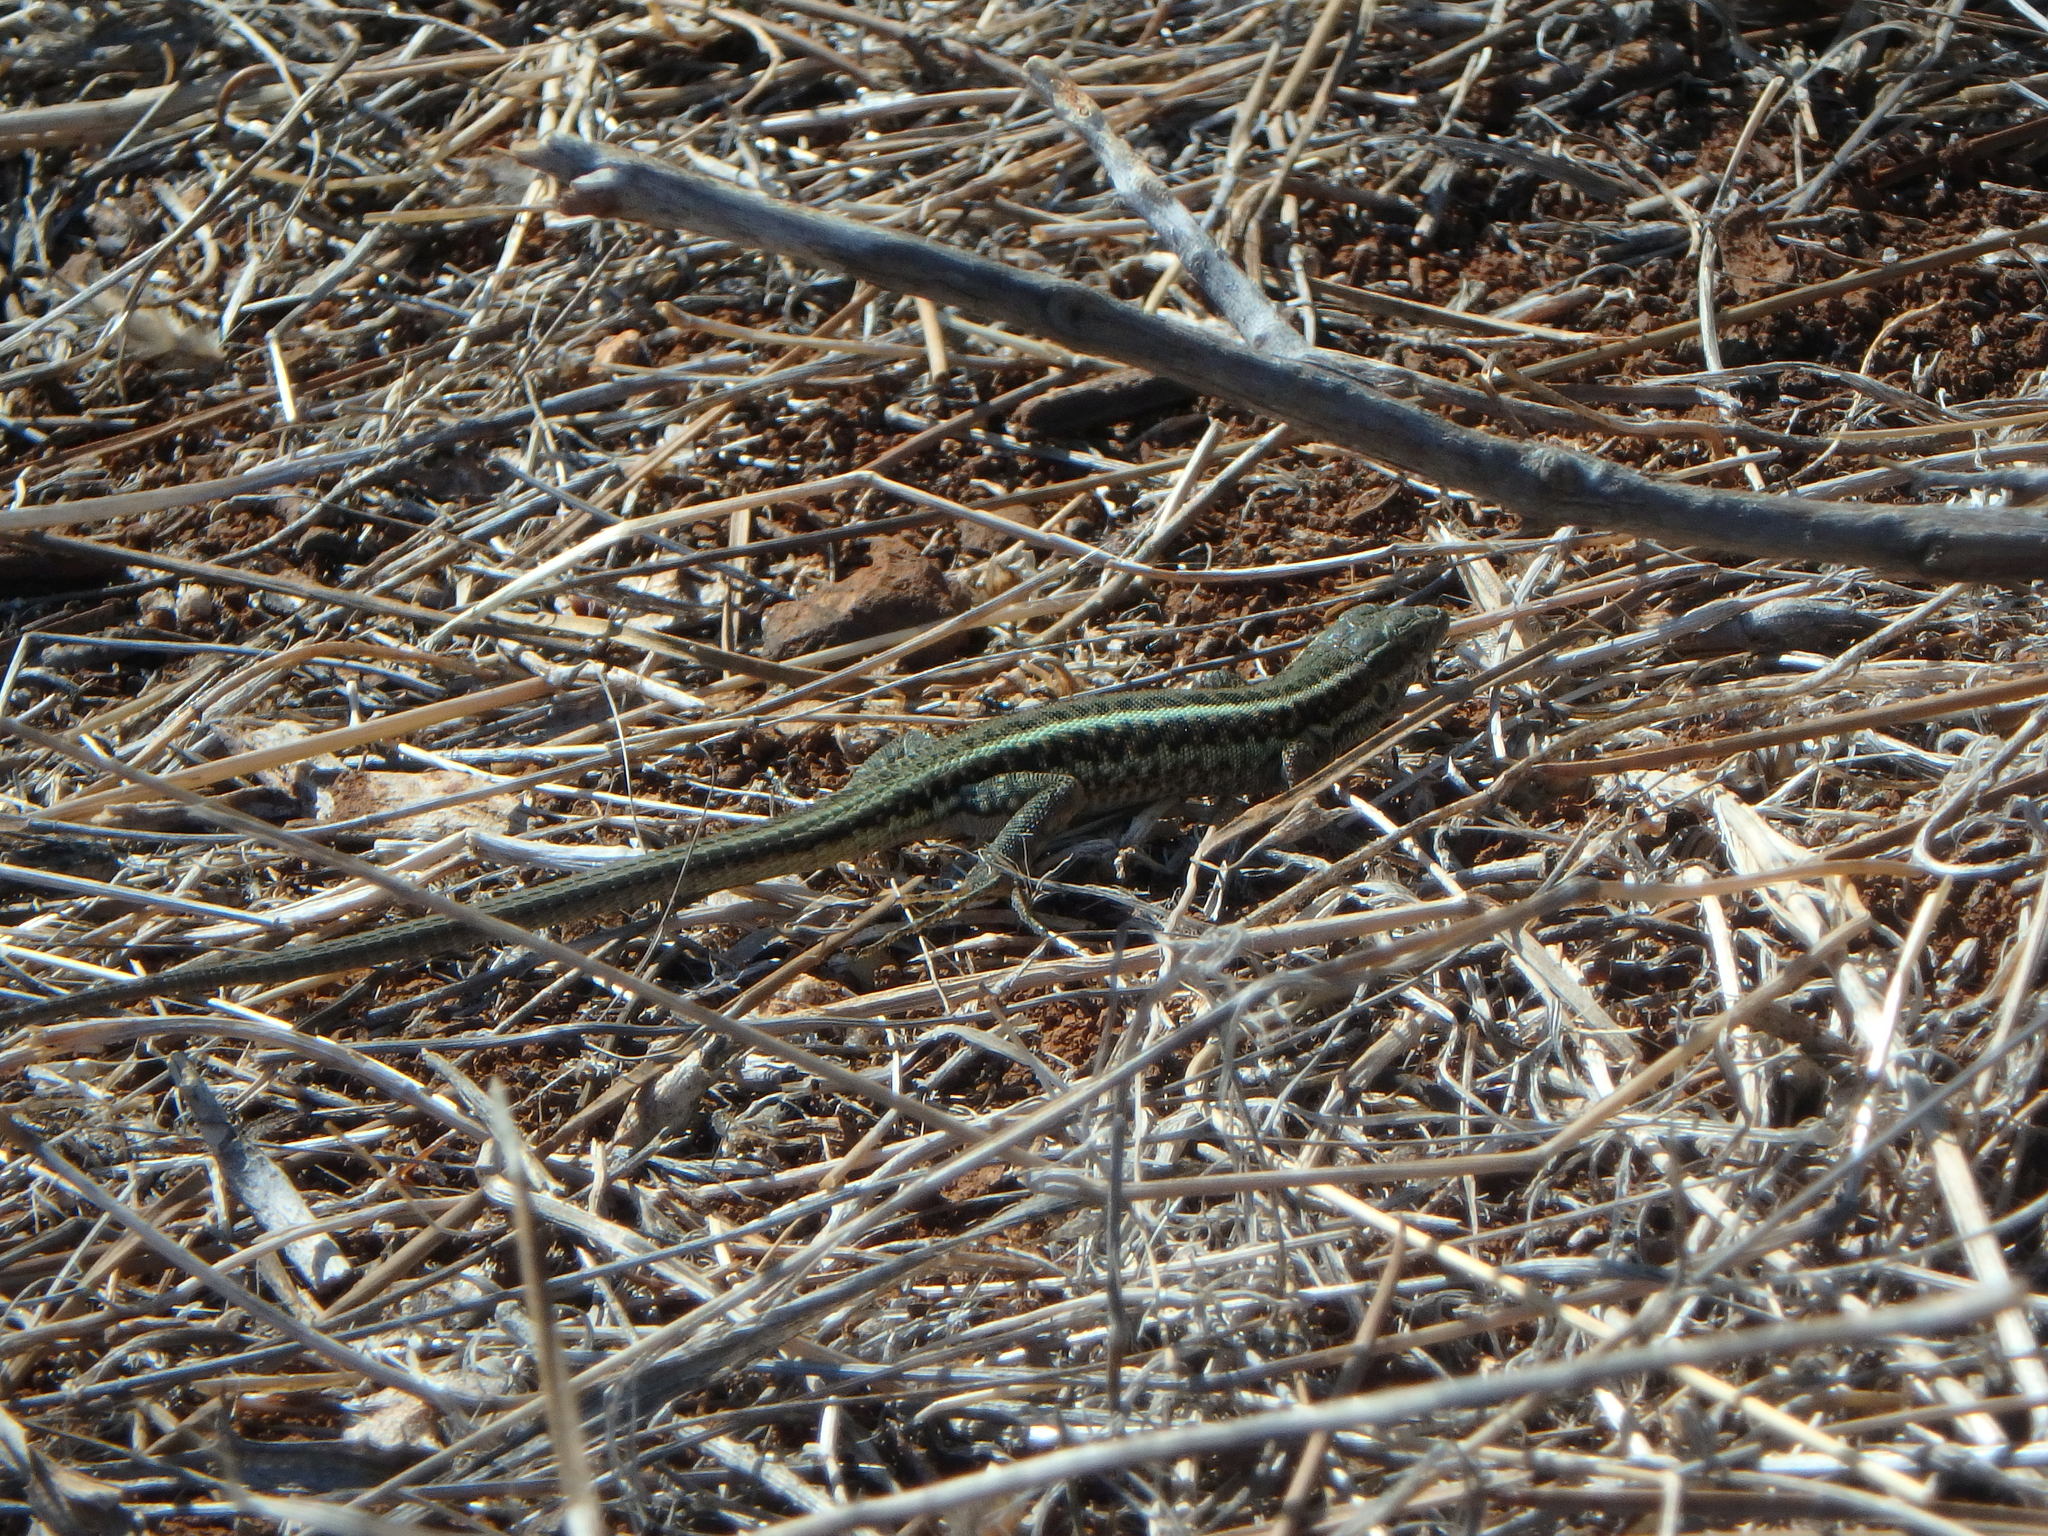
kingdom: Animalia
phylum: Chordata
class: Squamata
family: Lacertidae
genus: Ophisops
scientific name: Ophisops elegans
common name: Snake-eyed lizard
